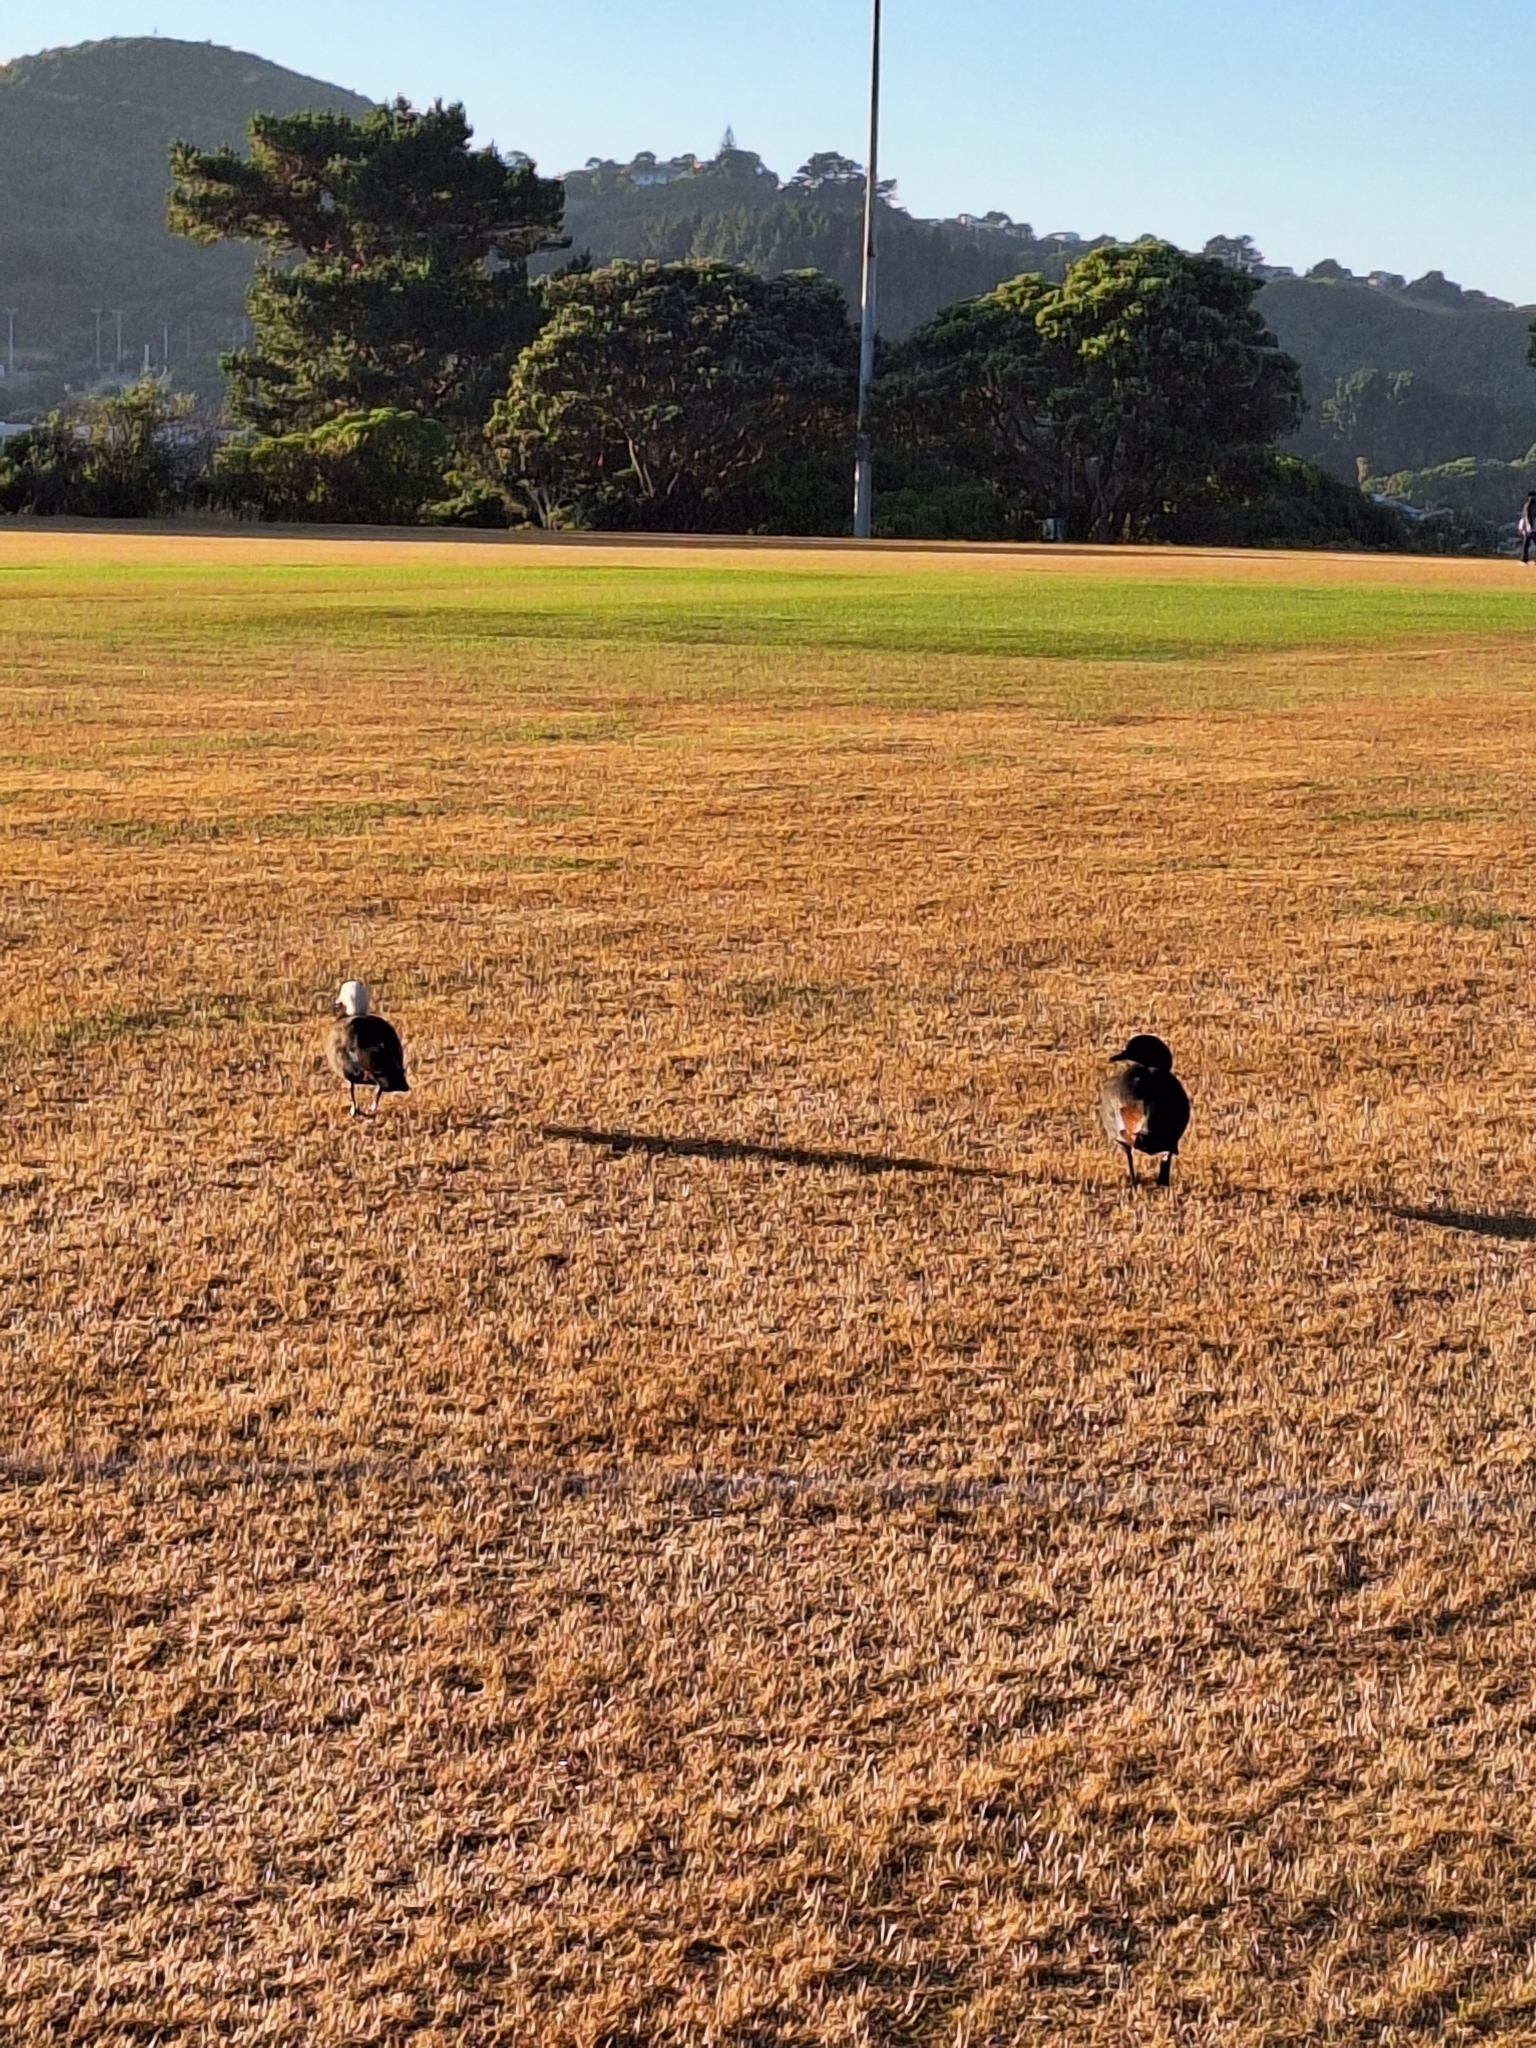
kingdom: Animalia
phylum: Chordata
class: Aves
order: Anseriformes
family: Anatidae
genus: Tadorna
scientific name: Tadorna variegata
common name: Paradise shelduck
